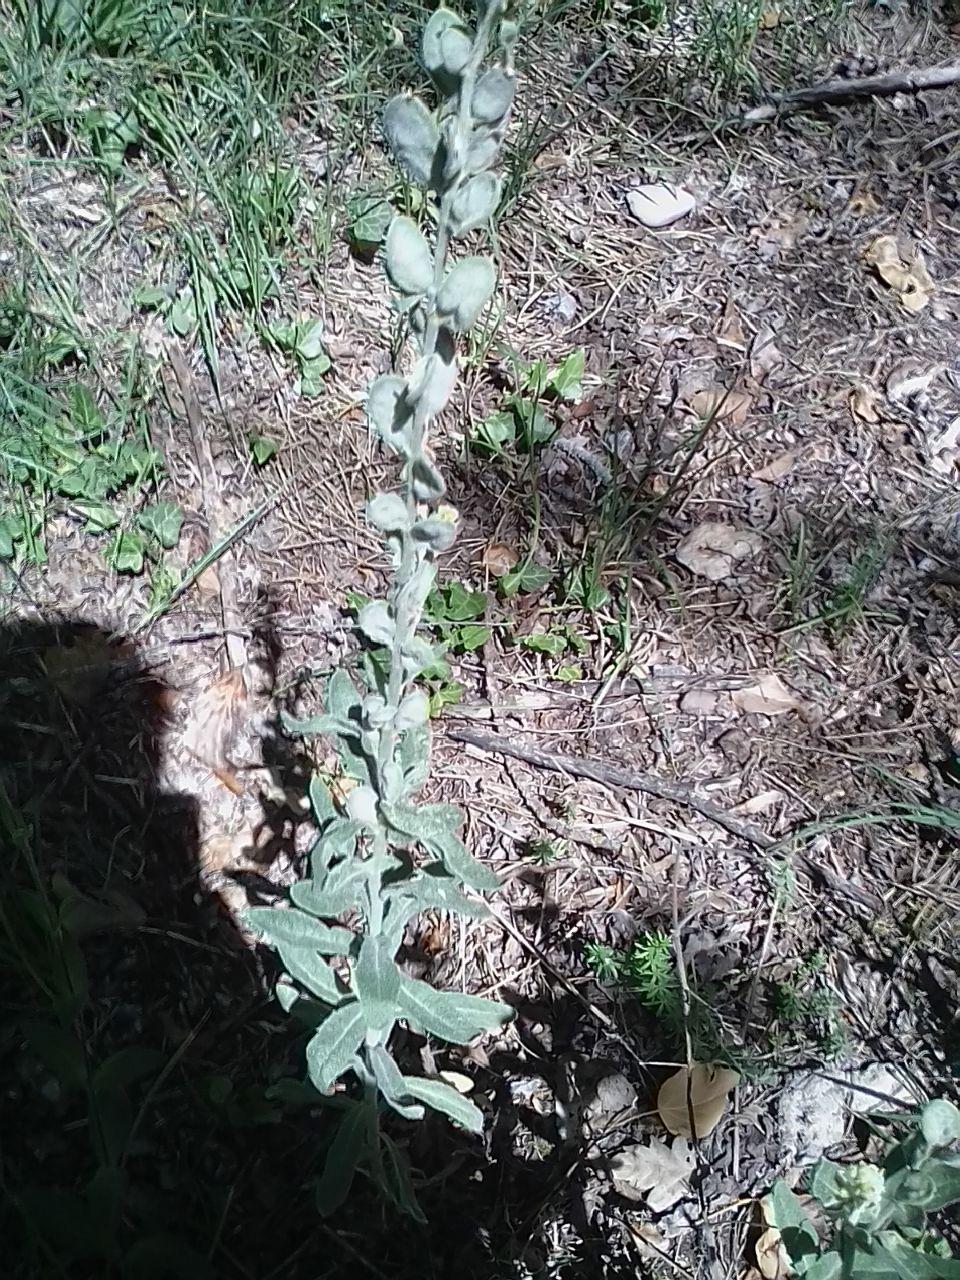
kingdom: Plantae
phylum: Tracheophyta
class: Magnoliopsida
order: Brassicales
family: Brassicaceae
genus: Fibigia
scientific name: Fibigia clypeata
